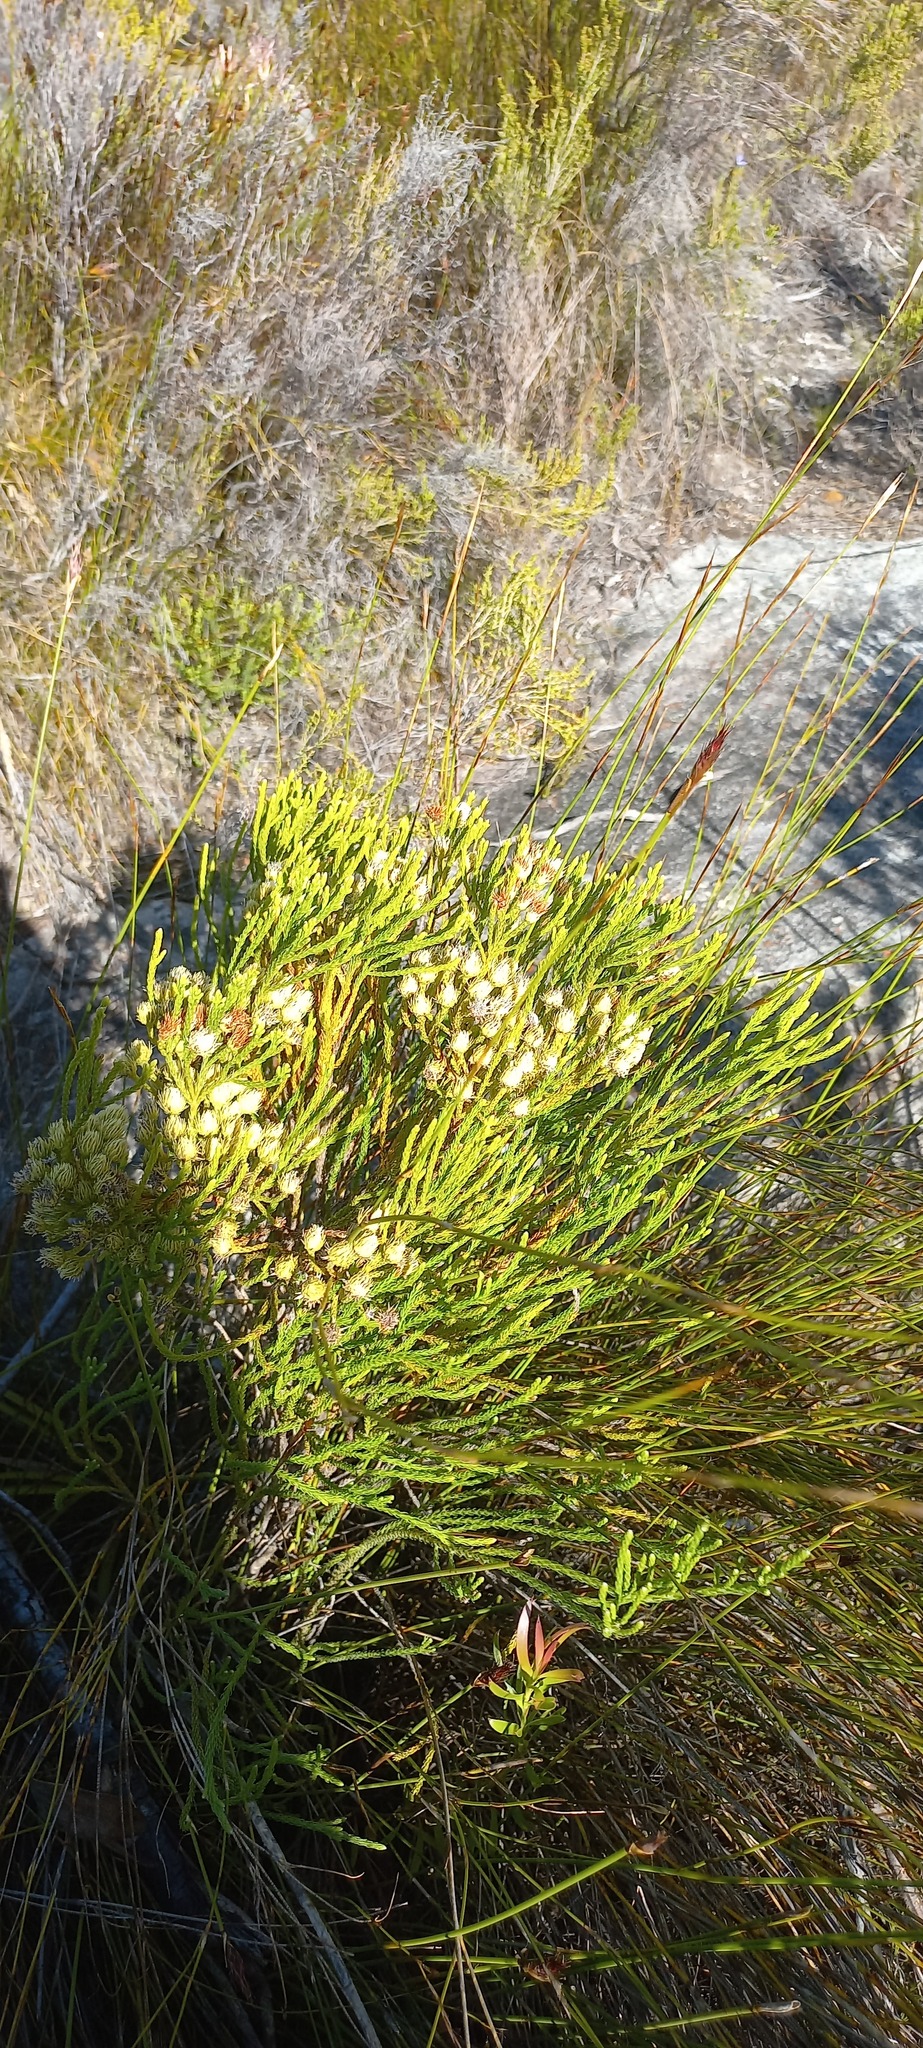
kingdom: Plantae
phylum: Tracheophyta
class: Magnoliopsida
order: Bruniales
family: Bruniaceae
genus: Brunia
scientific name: Brunia paleacea
